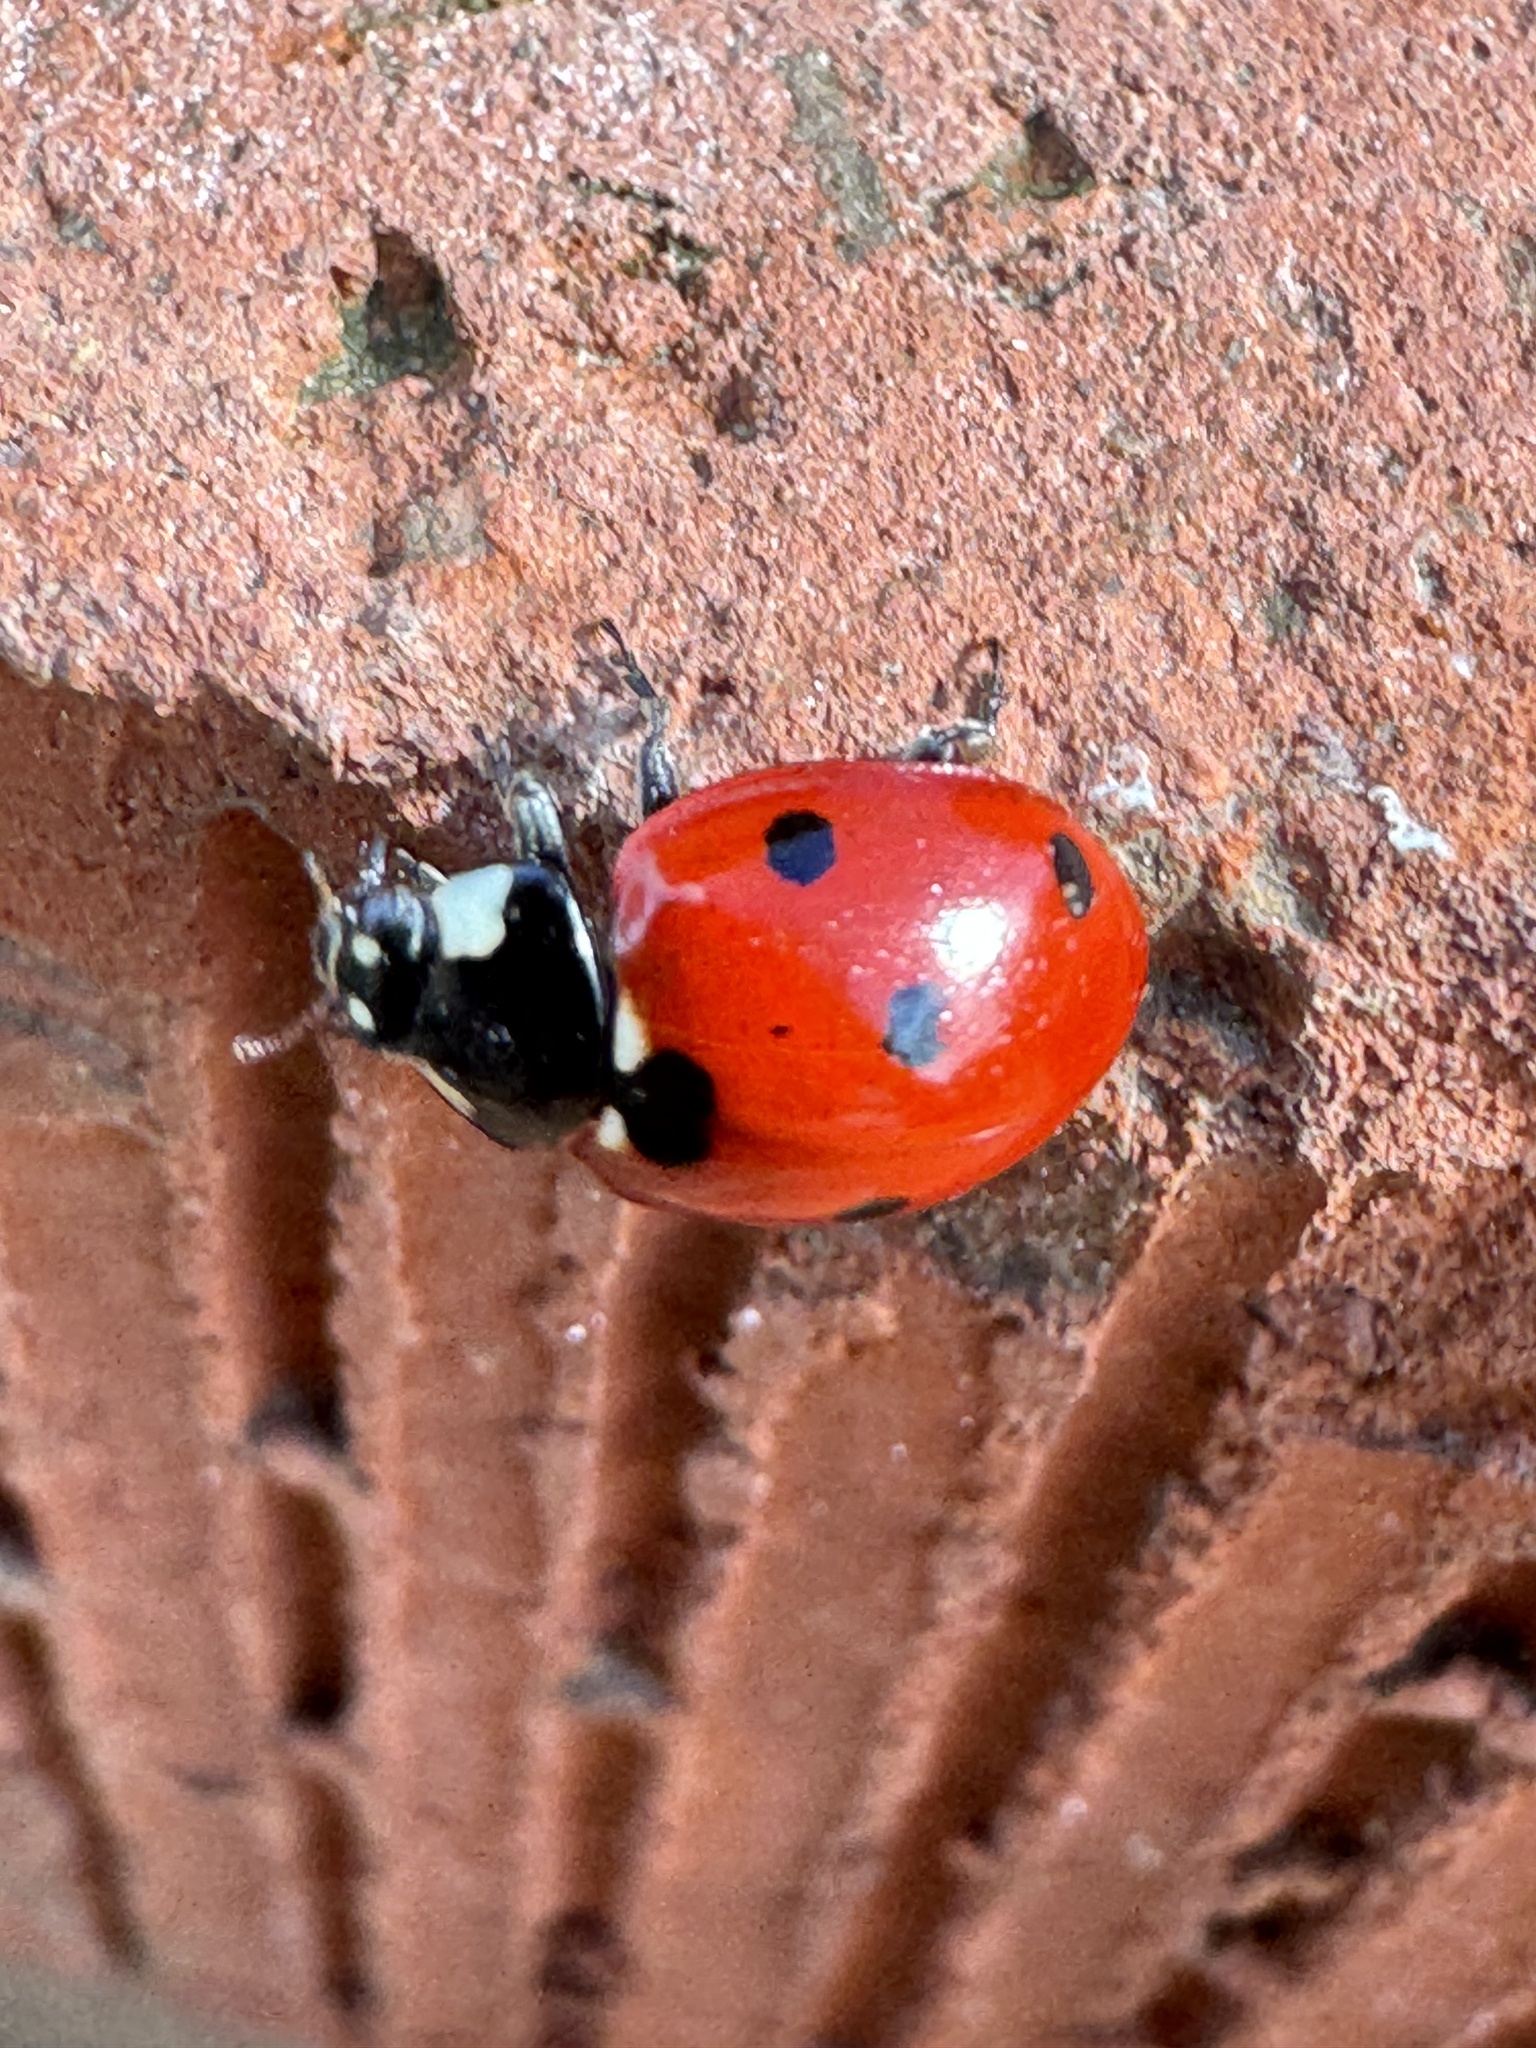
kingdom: Animalia
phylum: Arthropoda
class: Insecta
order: Coleoptera
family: Coccinellidae
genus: Coccinella
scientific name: Coccinella septempunctata
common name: Sevenspotted lady beetle
